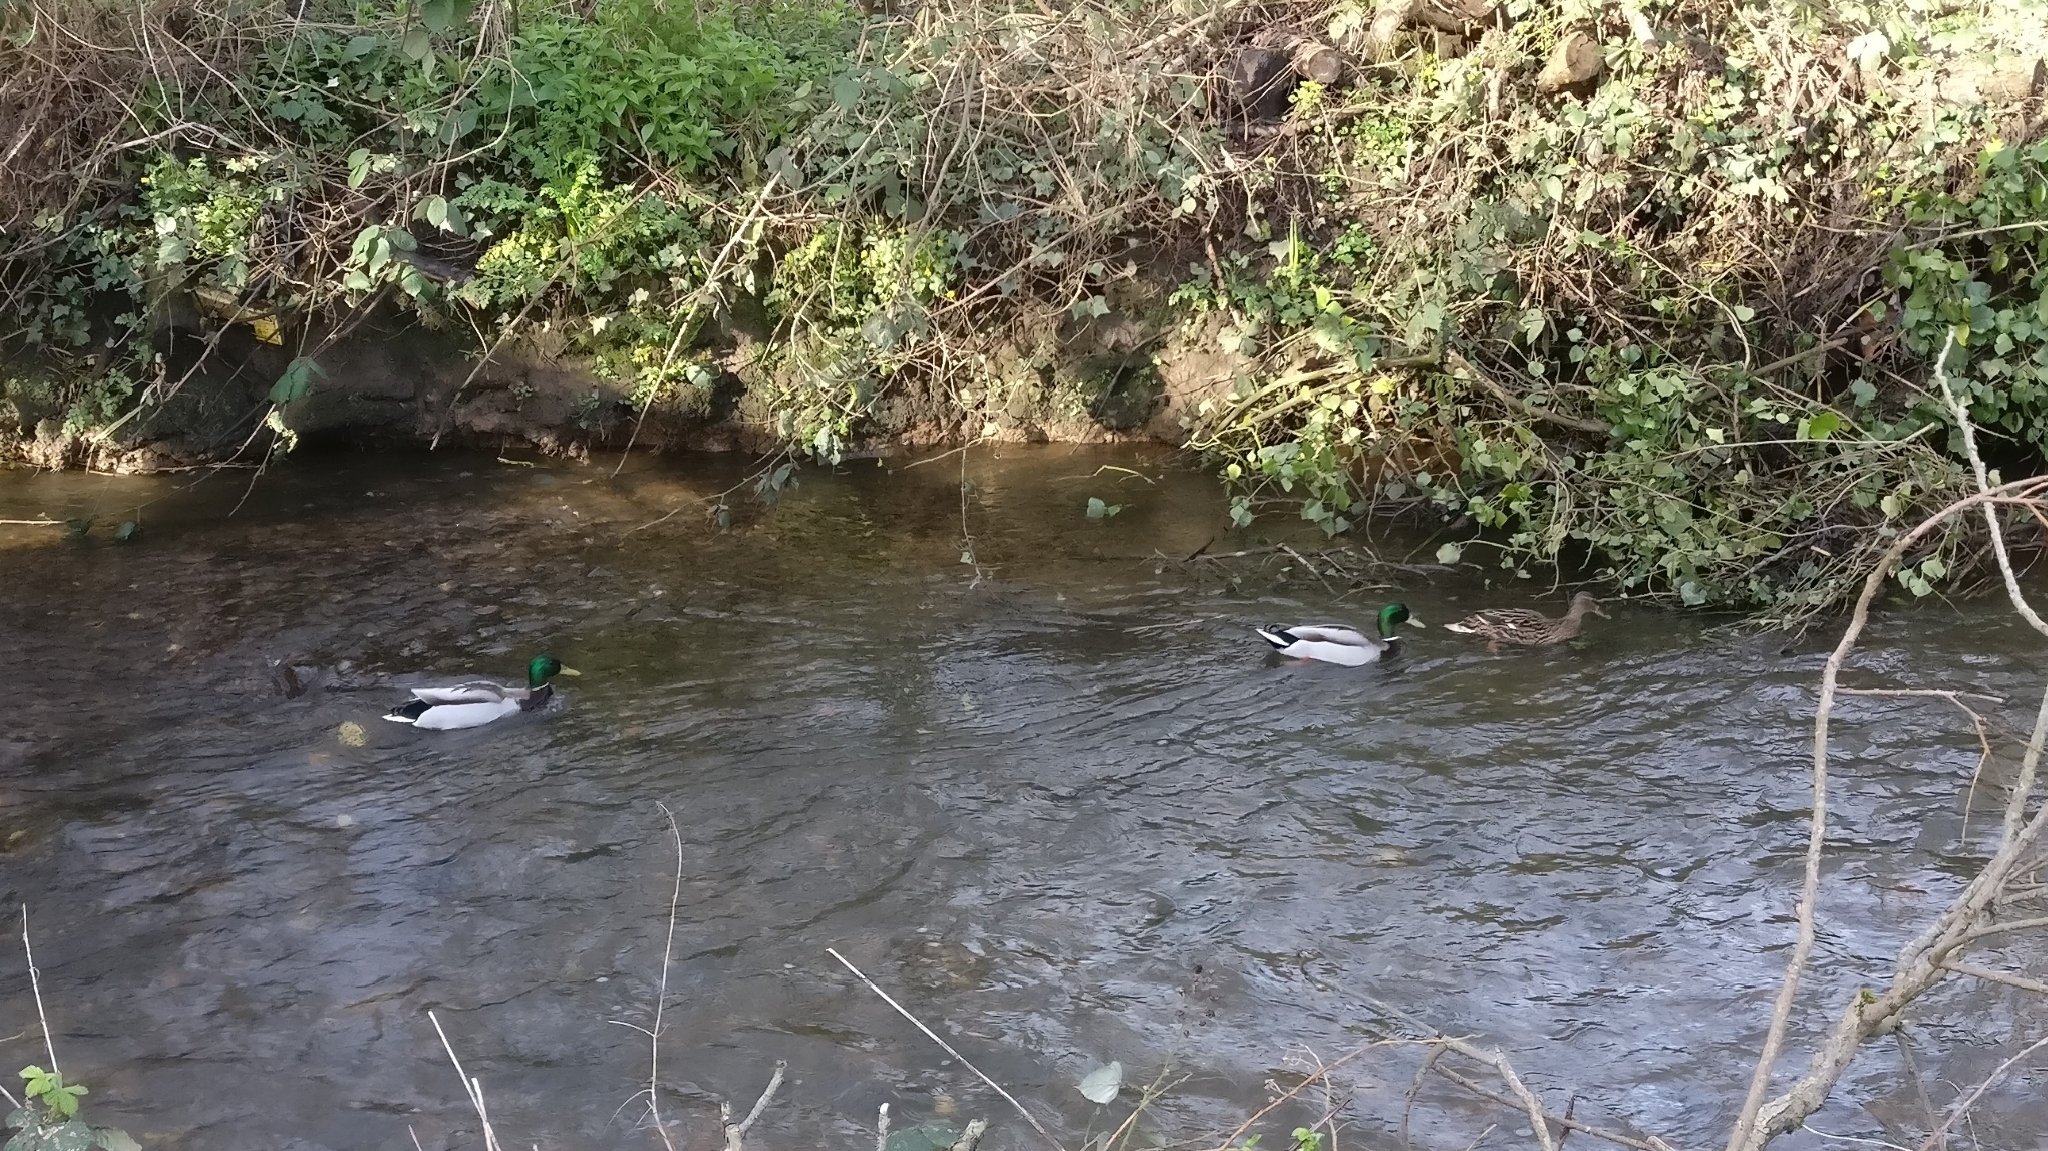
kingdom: Animalia
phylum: Chordata
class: Aves
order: Anseriformes
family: Anatidae
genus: Anas
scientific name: Anas platyrhynchos
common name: Mallard
